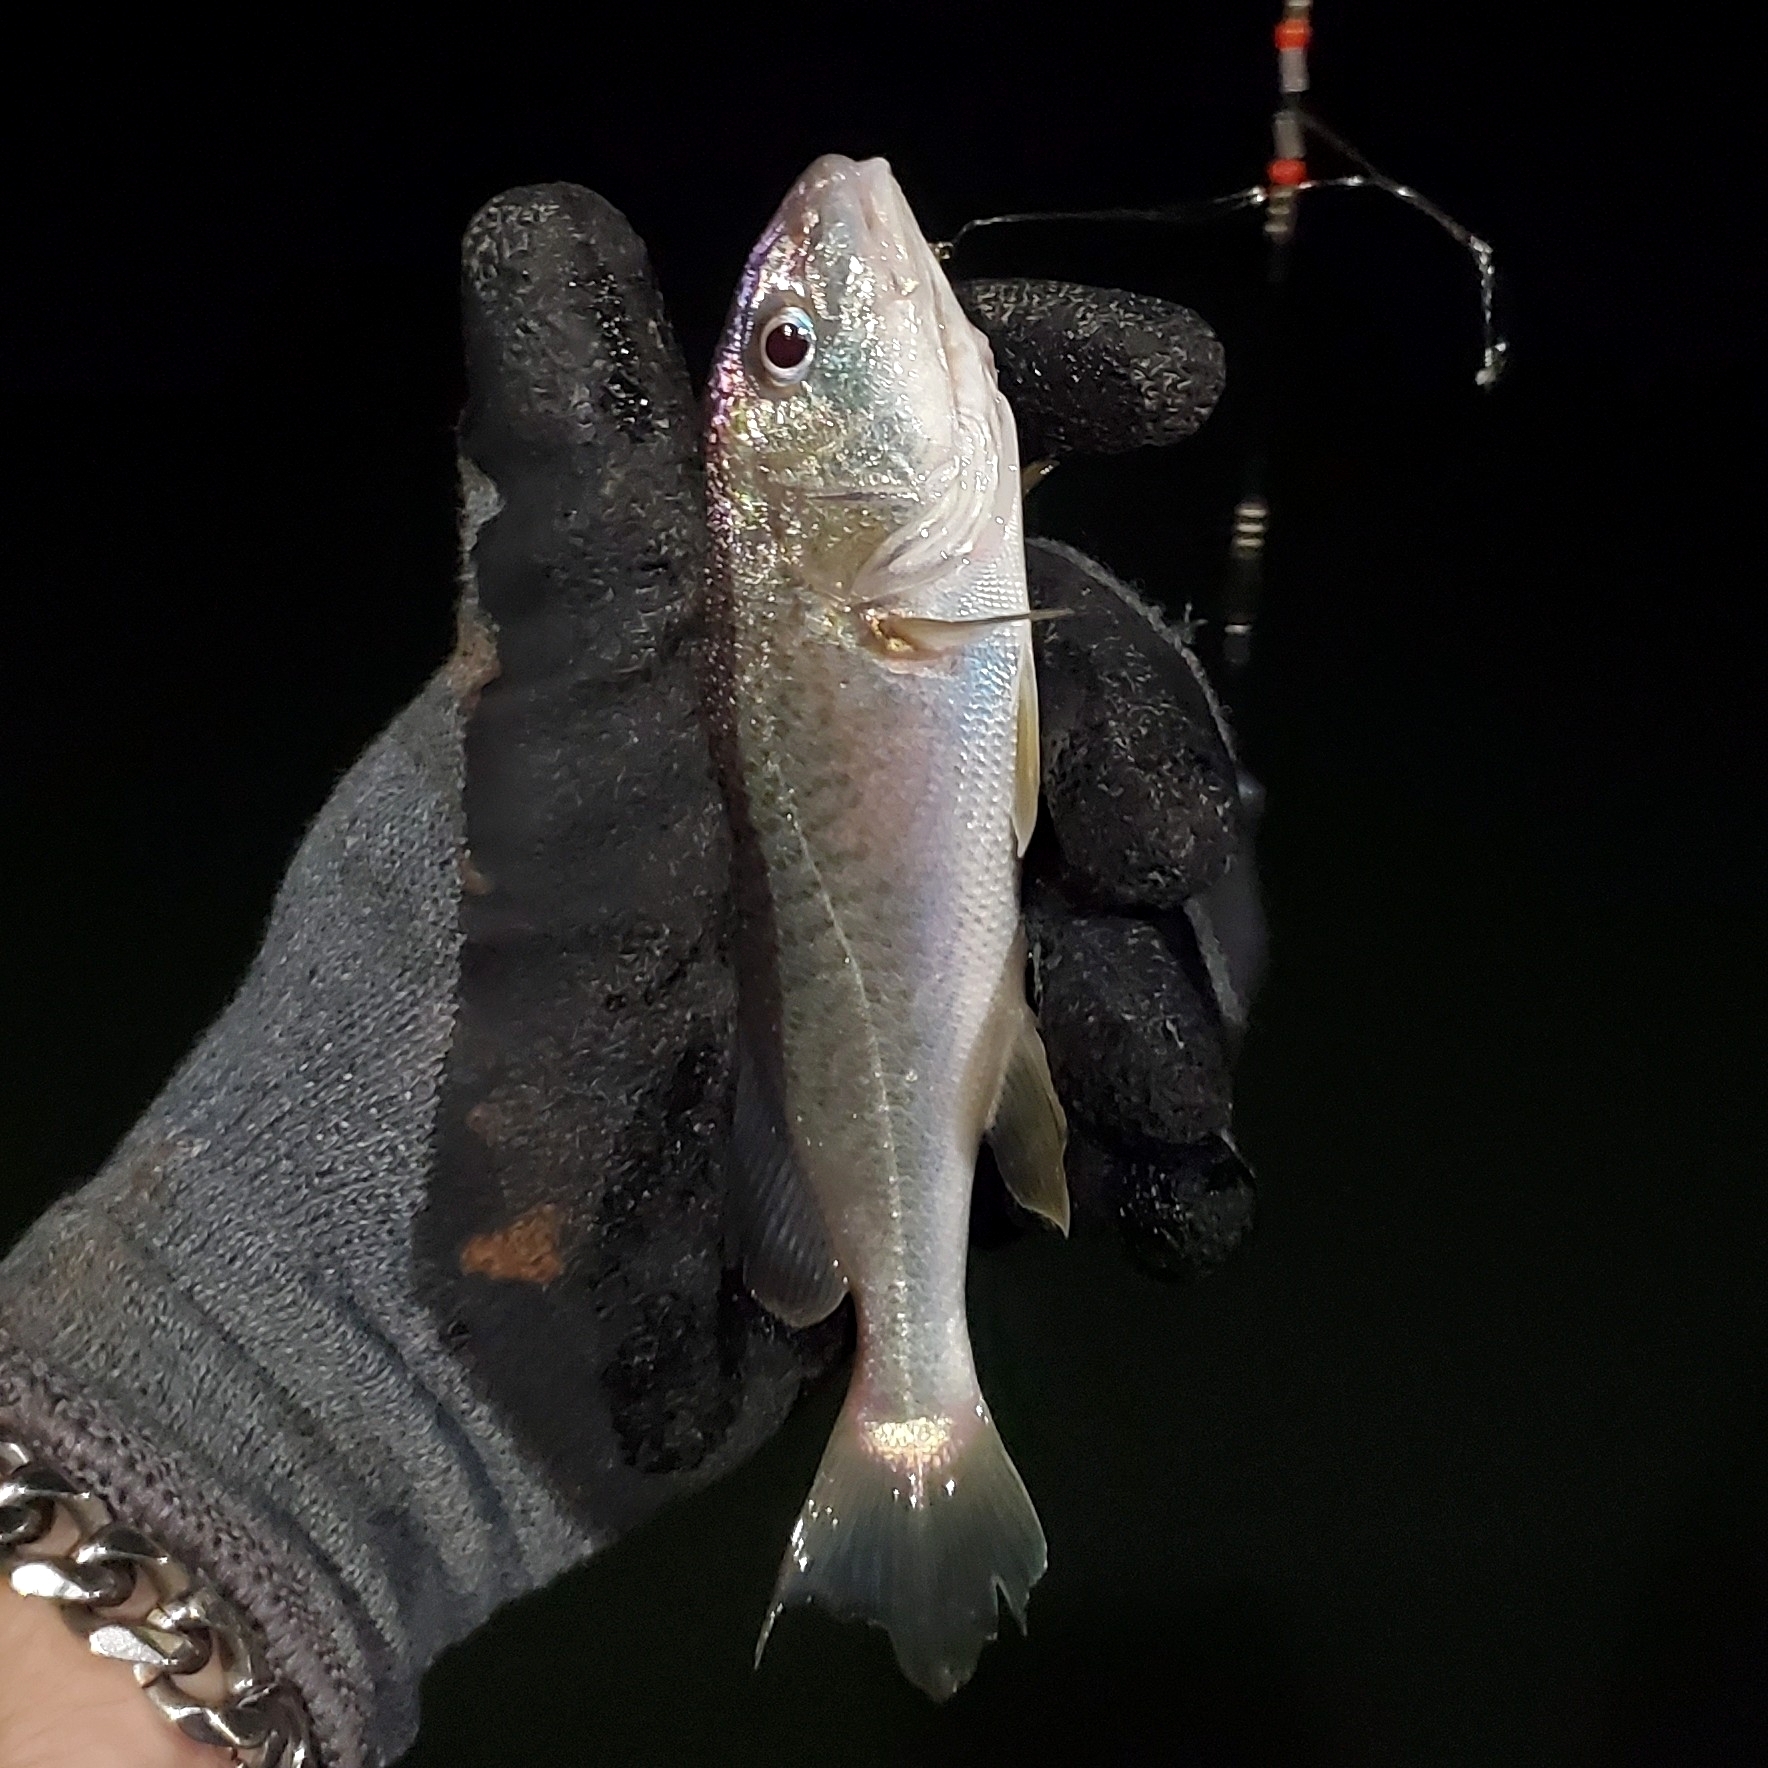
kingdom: Animalia
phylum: Chordata
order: Perciformes
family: Sciaenidae
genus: Micropogonias
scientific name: Micropogonias undulatus
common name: Atlantic croaker
